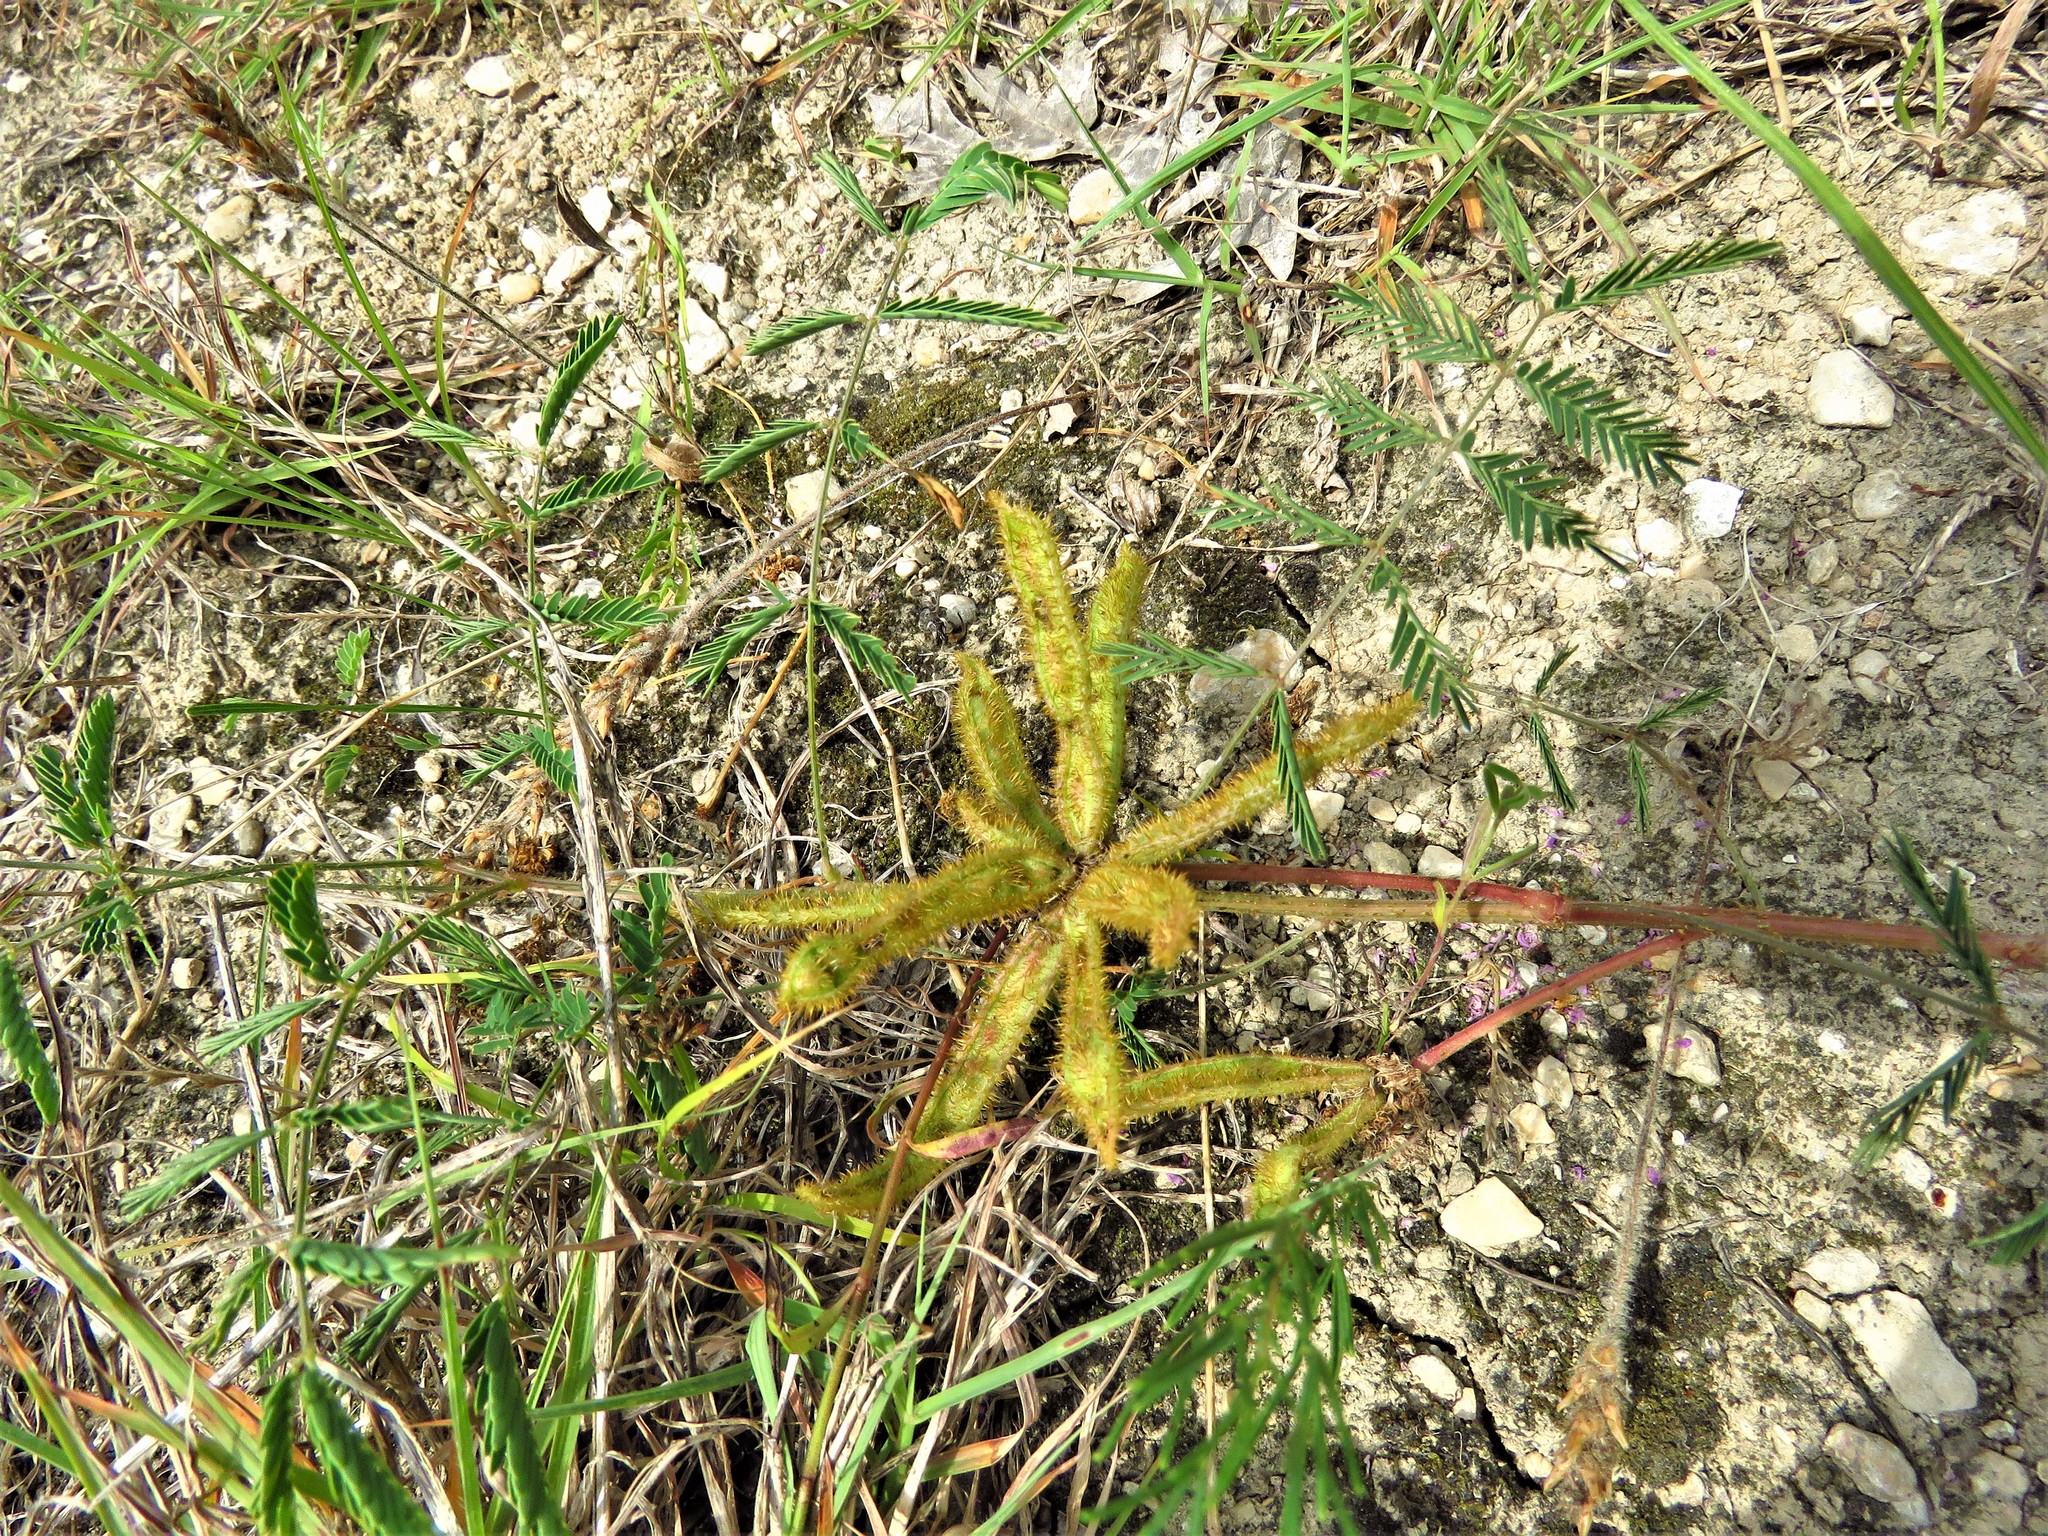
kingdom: Plantae
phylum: Tracheophyta
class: Magnoliopsida
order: Fabales
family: Fabaceae
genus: Mimosa
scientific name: Mimosa quadrivalvis
